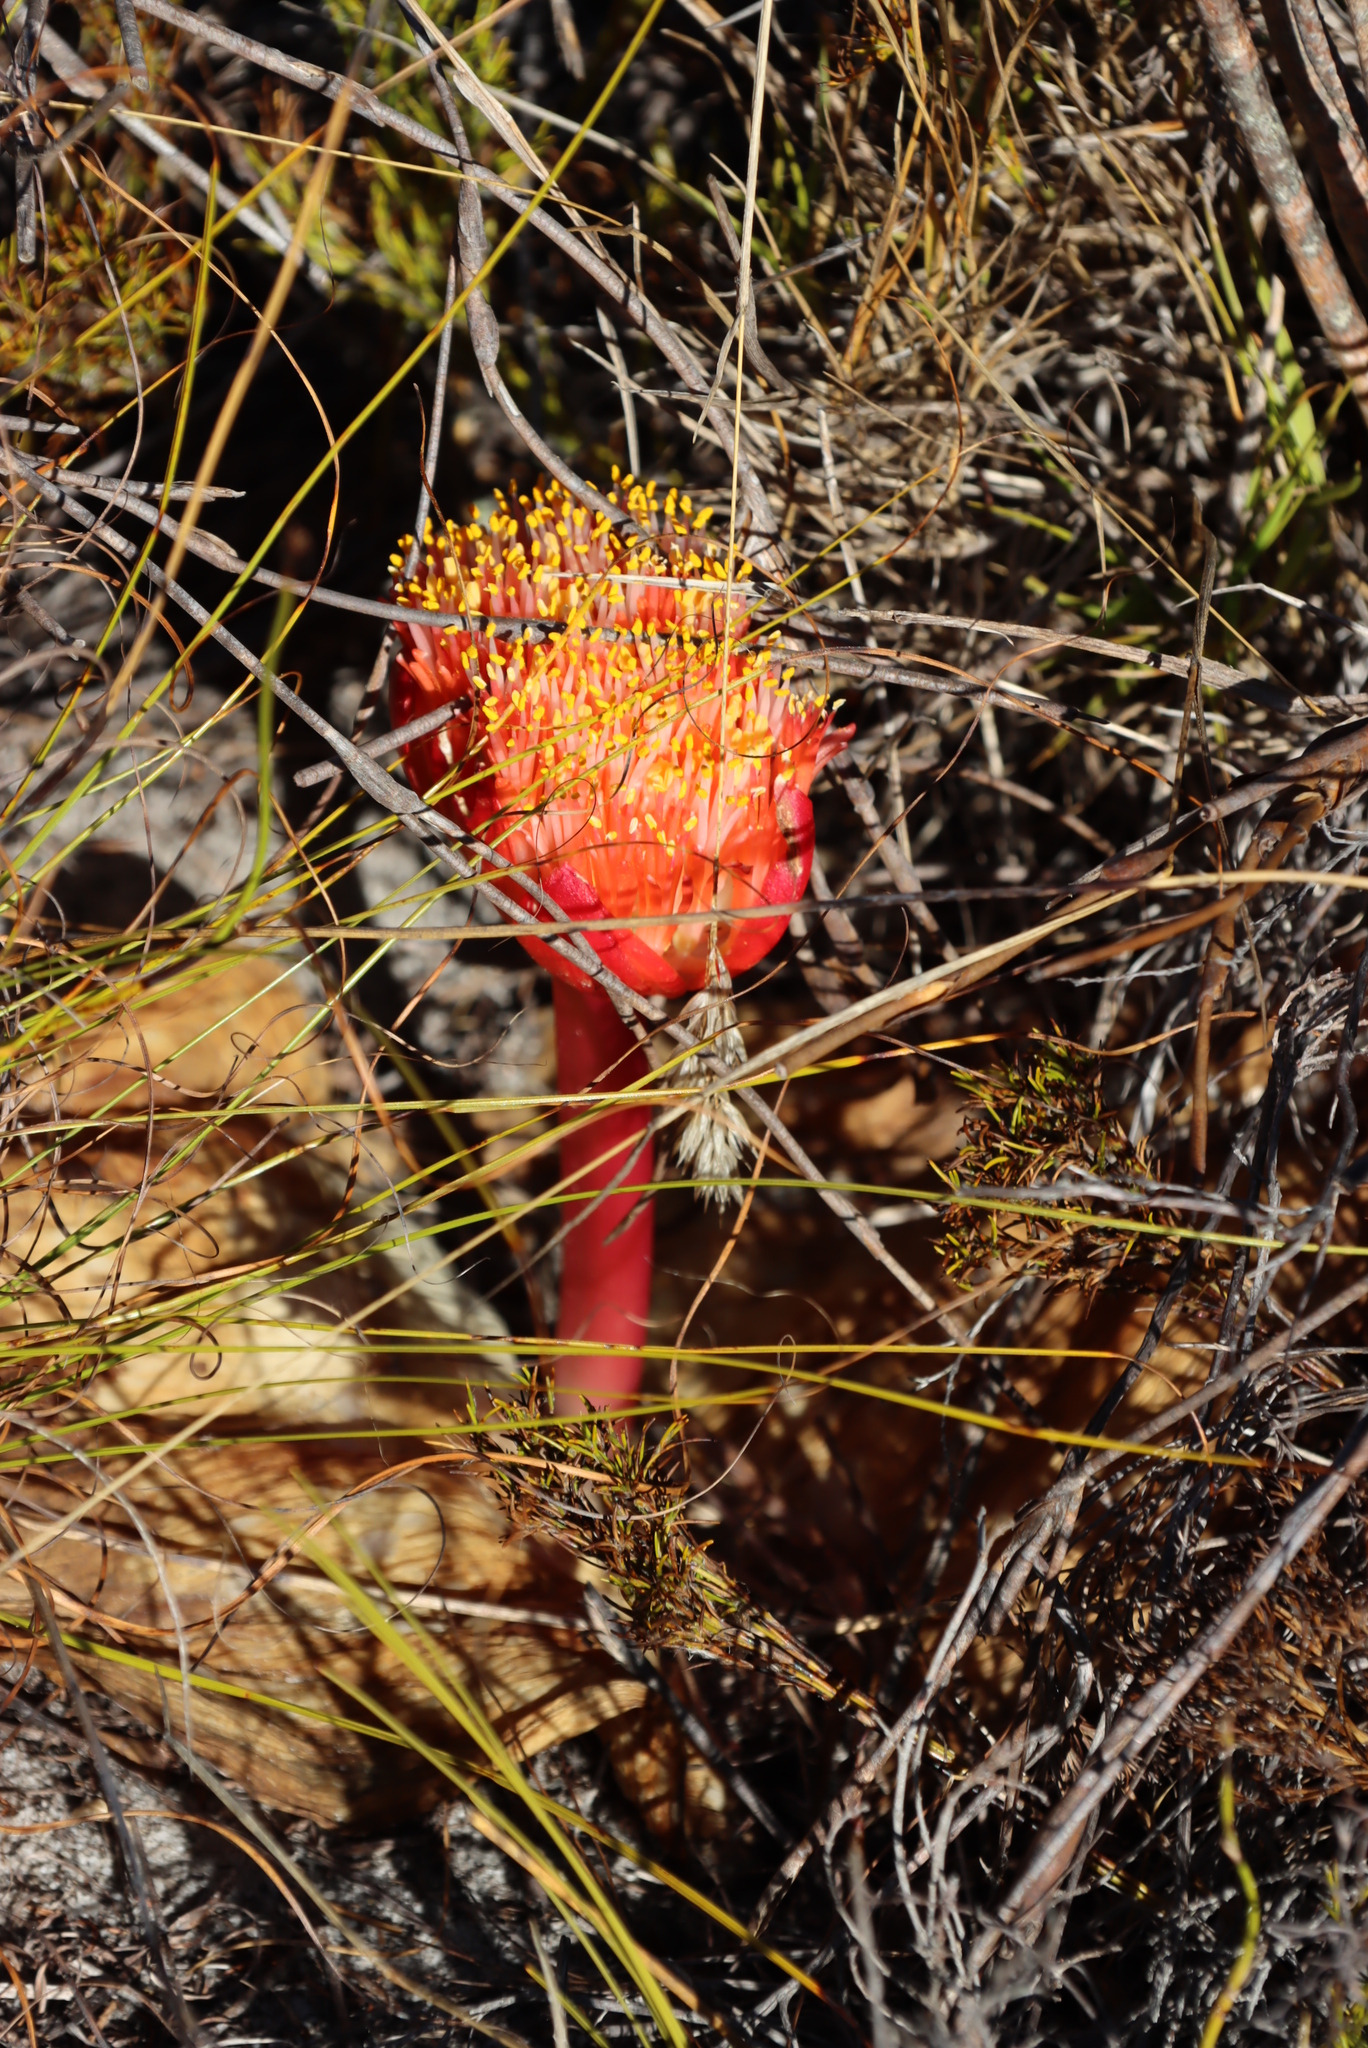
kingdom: Plantae
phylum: Tracheophyta
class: Liliopsida
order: Asparagales
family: Amaryllidaceae
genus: Haemanthus
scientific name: Haemanthus sanguineus
